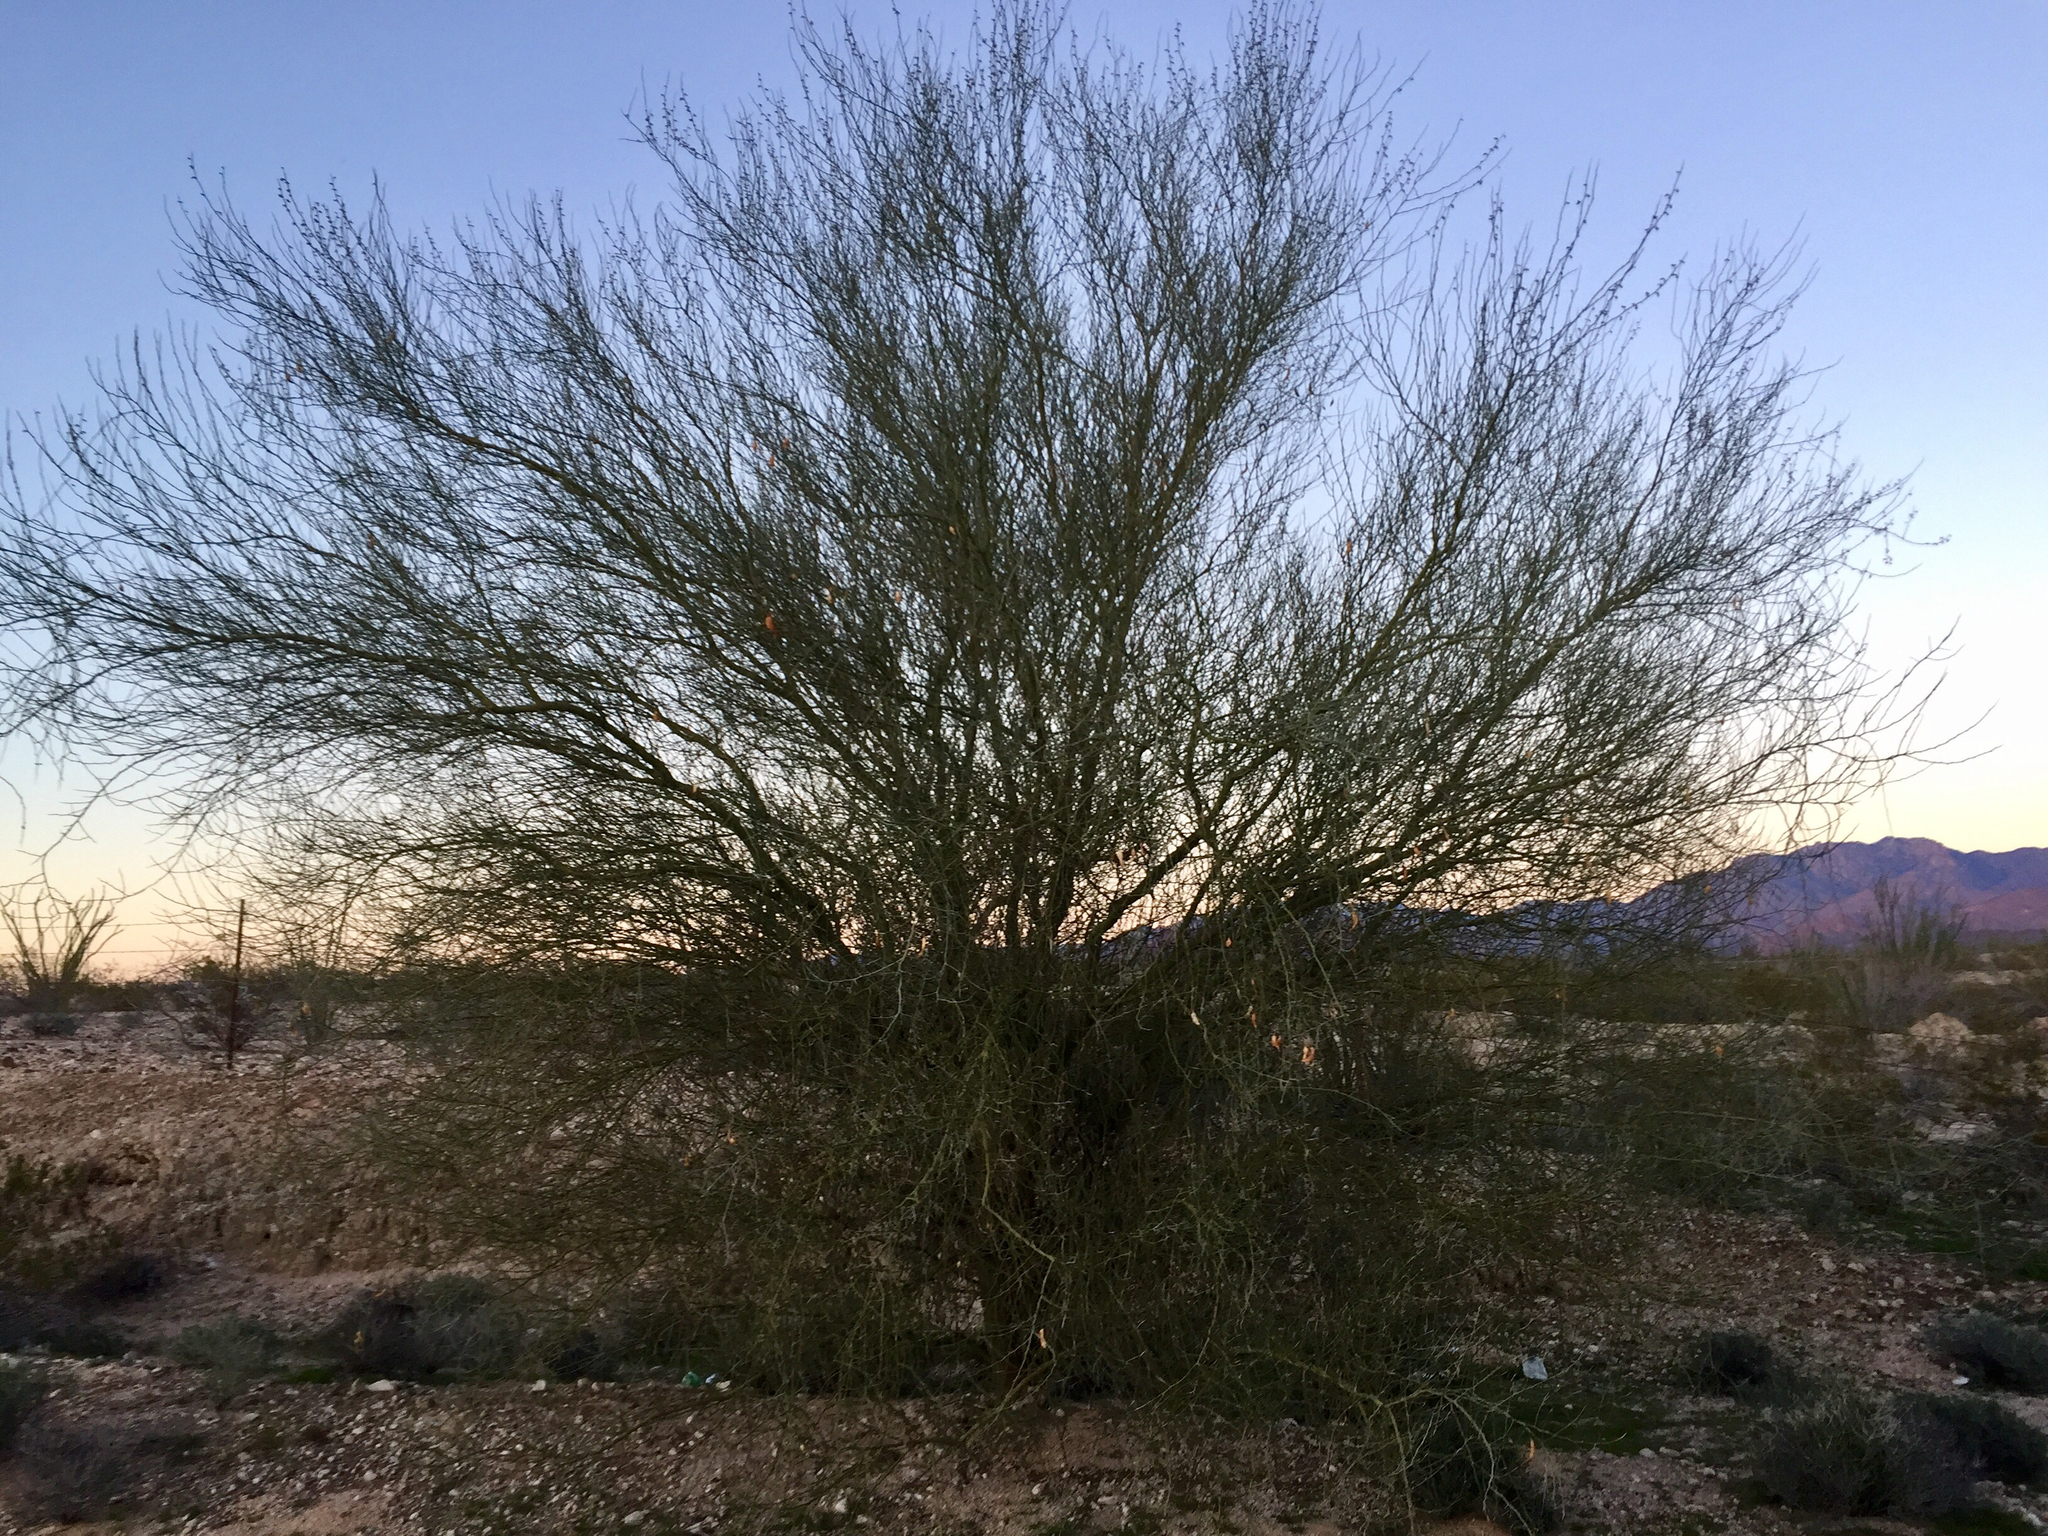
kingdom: Plantae
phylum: Tracheophyta
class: Magnoliopsida
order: Fabales
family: Fabaceae
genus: Parkinsonia
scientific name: Parkinsonia florida
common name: Blue paloverde
